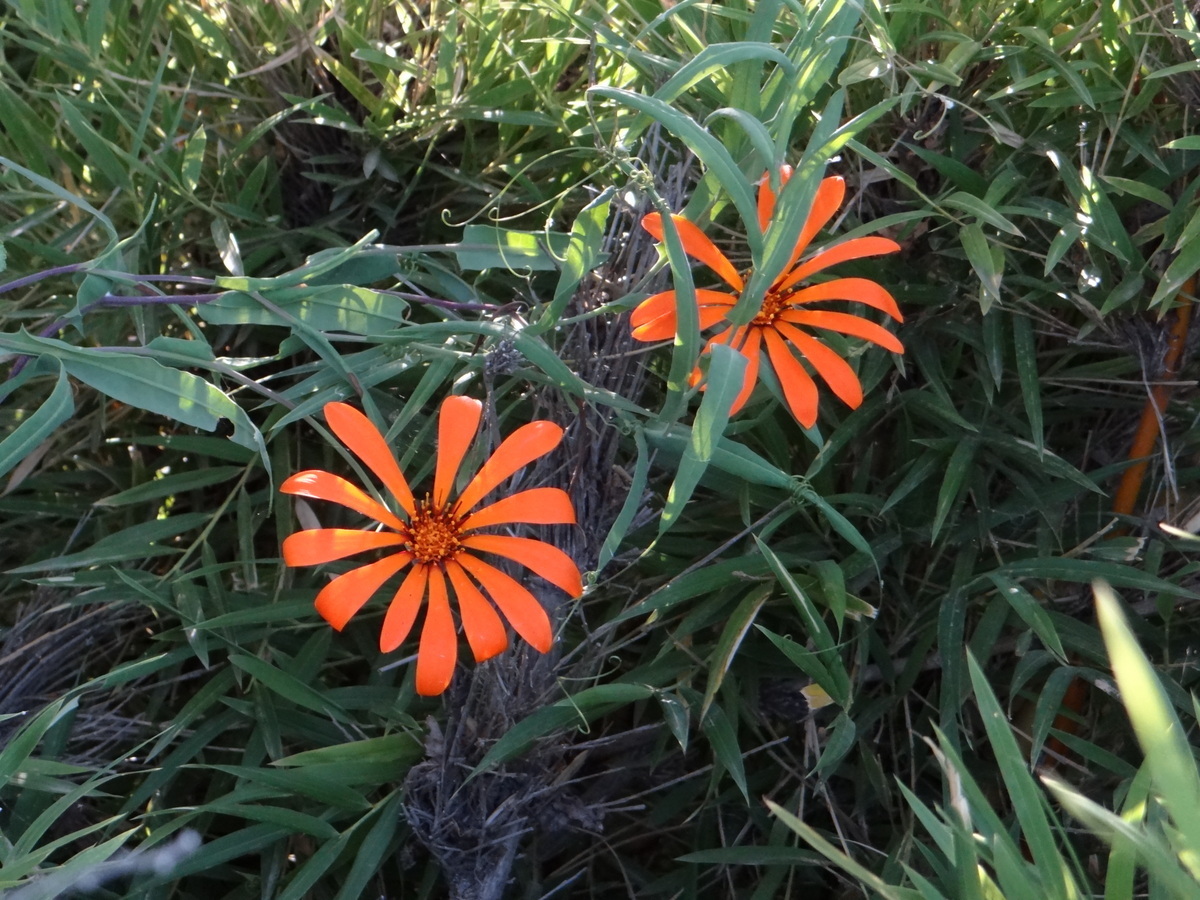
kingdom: Plantae
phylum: Tracheophyta
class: Magnoliopsida
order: Asterales
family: Asteraceae
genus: Mutisia
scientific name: Mutisia decurrens
